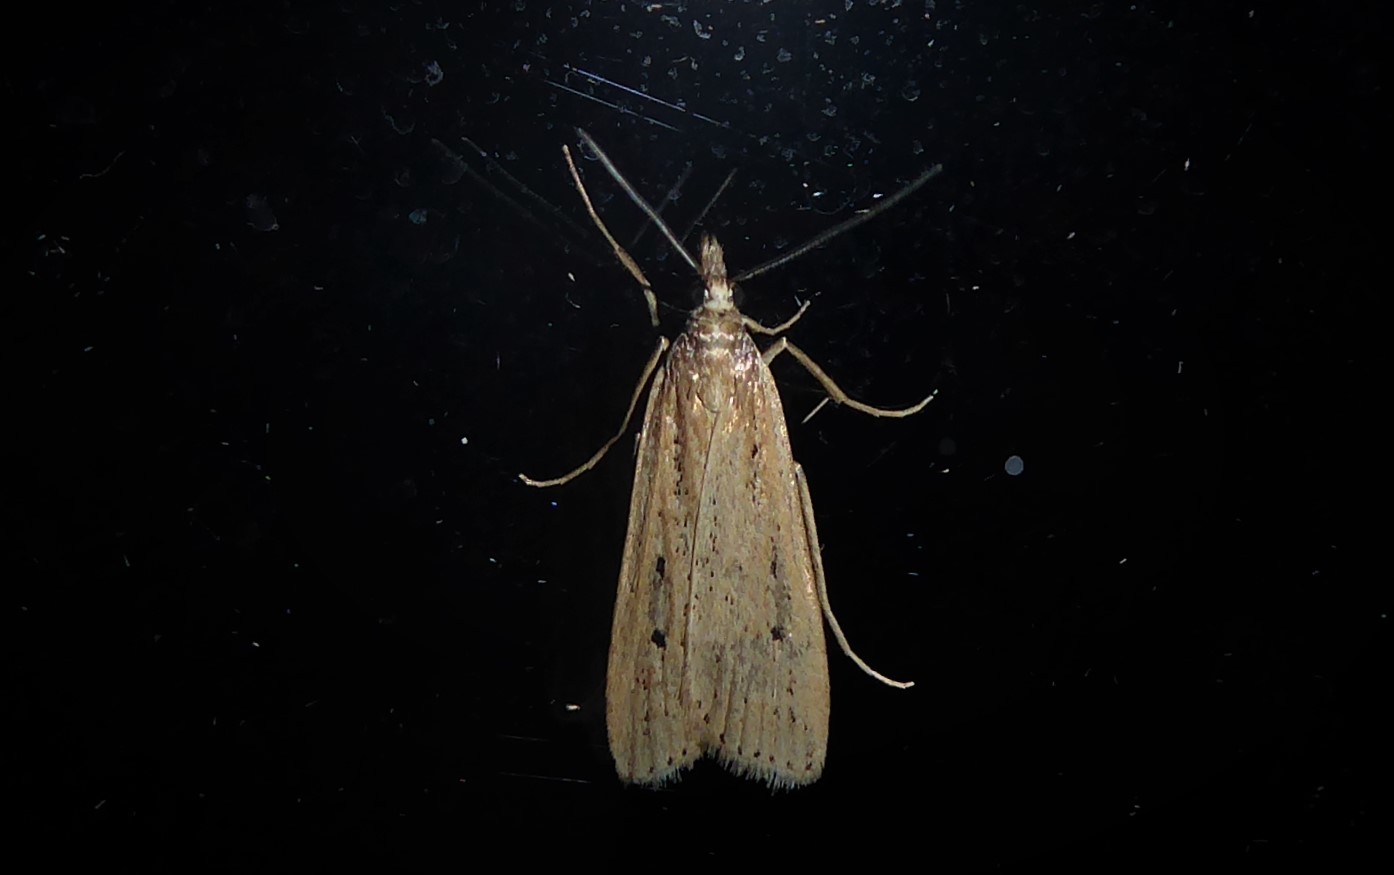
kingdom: Animalia
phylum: Arthropoda
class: Insecta
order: Lepidoptera
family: Crambidae
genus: Eudonia
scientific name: Eudonia sabulosella
